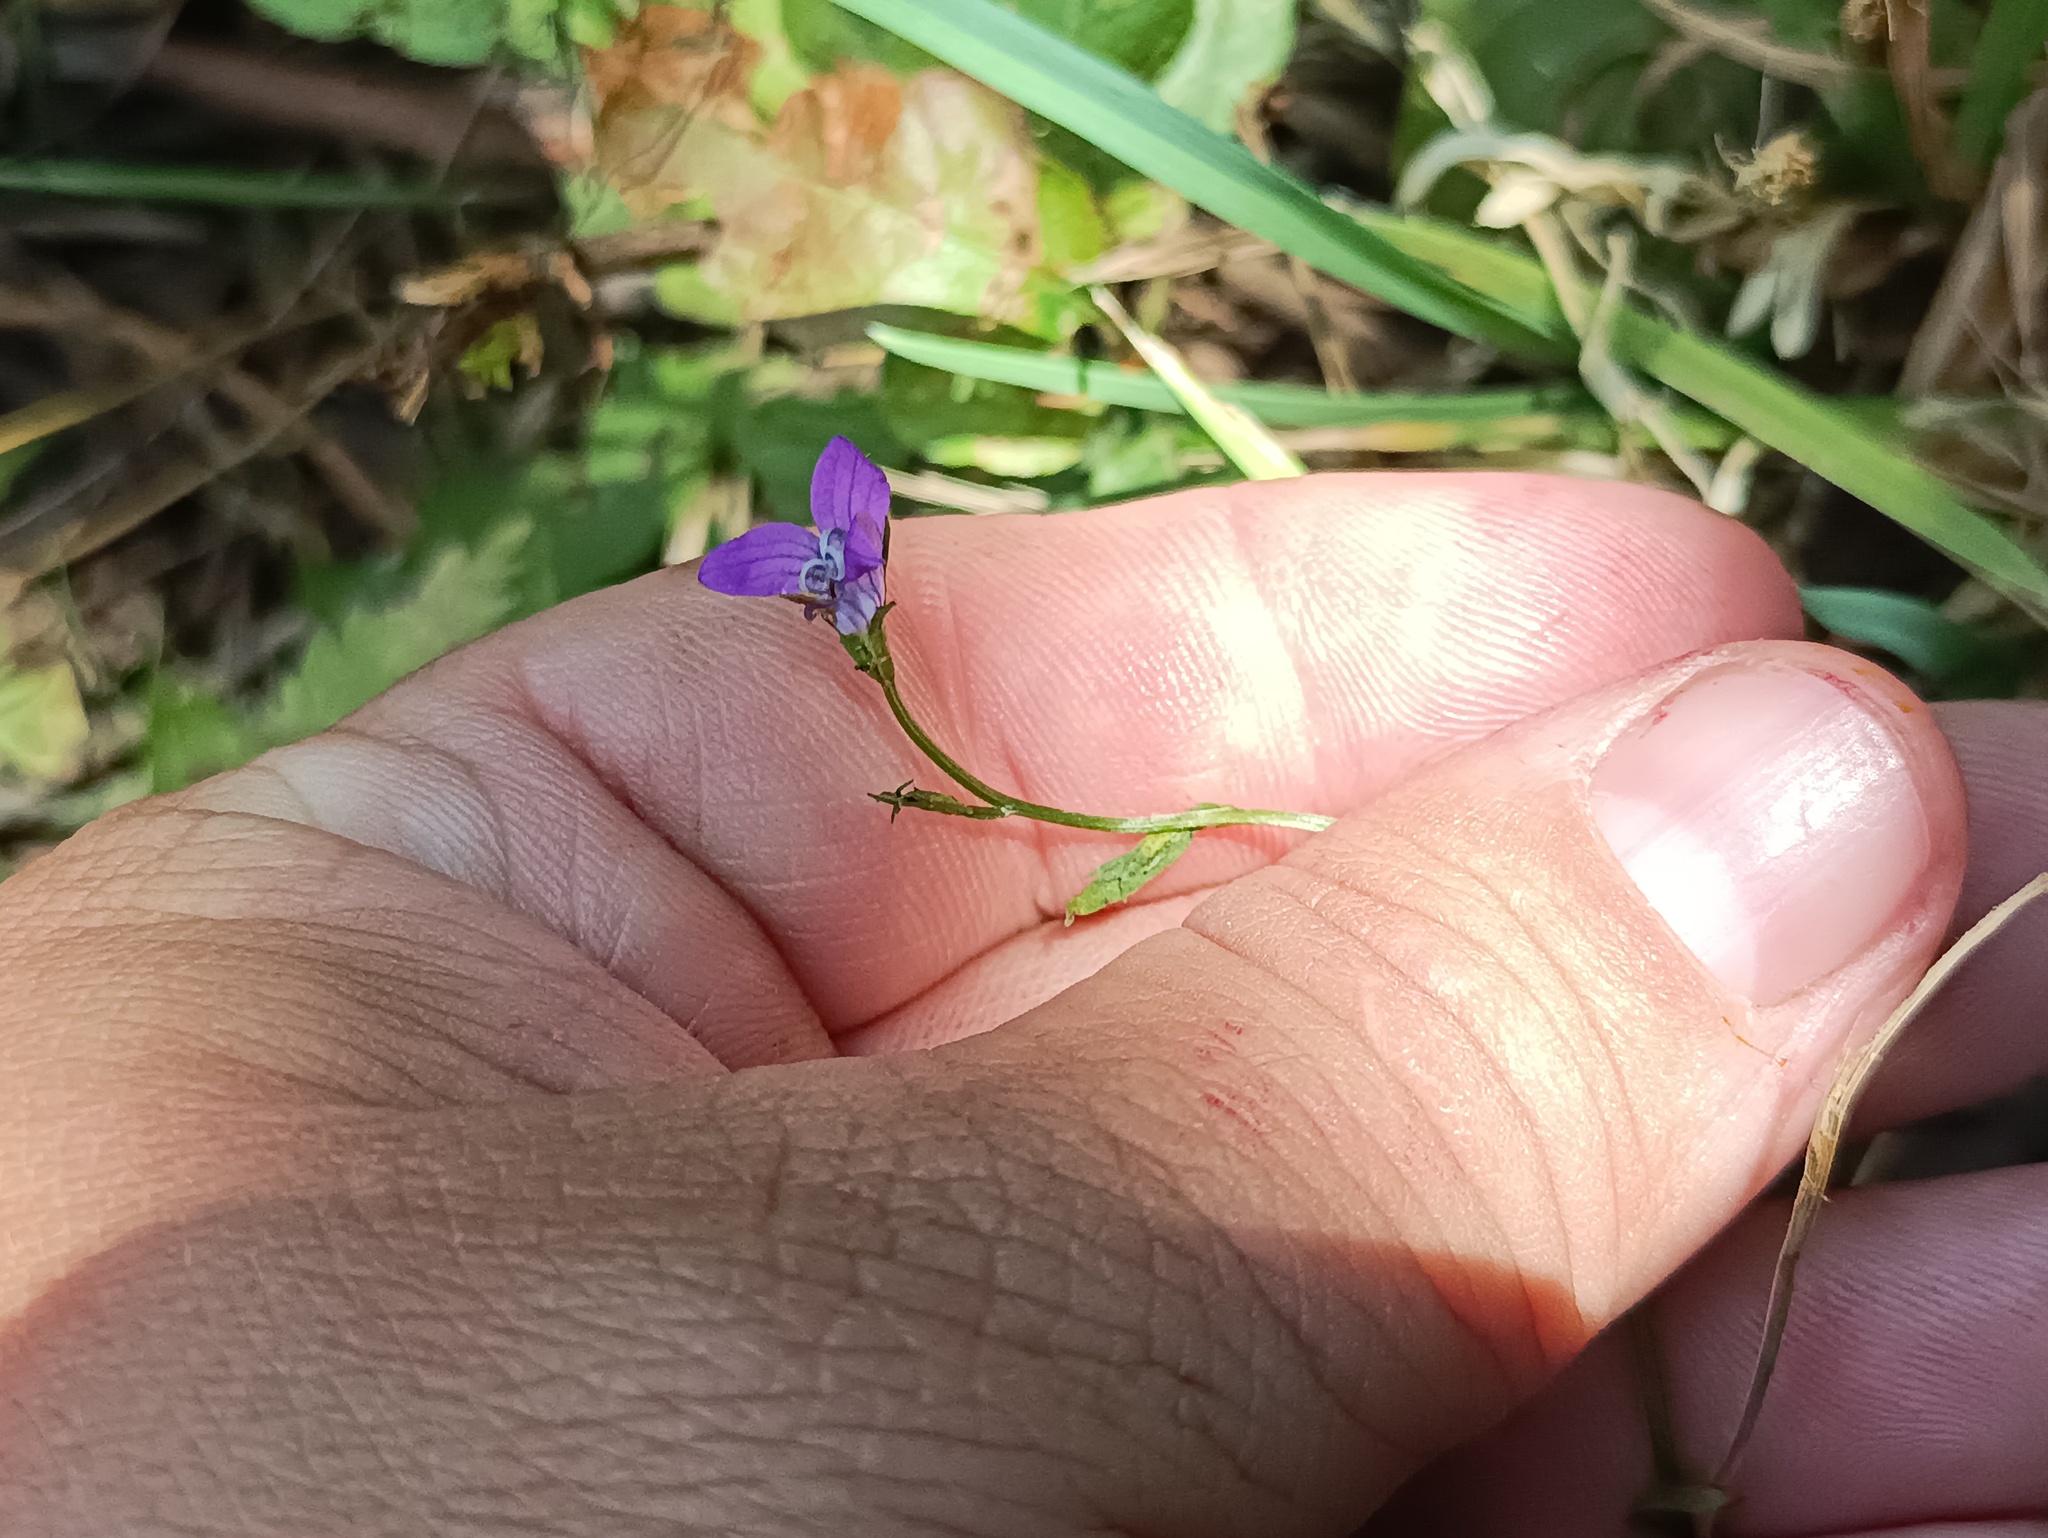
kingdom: Plantae
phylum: Tracheophyta
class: Magnoliopsida
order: Asterales
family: Campanulaceae
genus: Campanula
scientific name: Campanula patula
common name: Spreading bellflower
